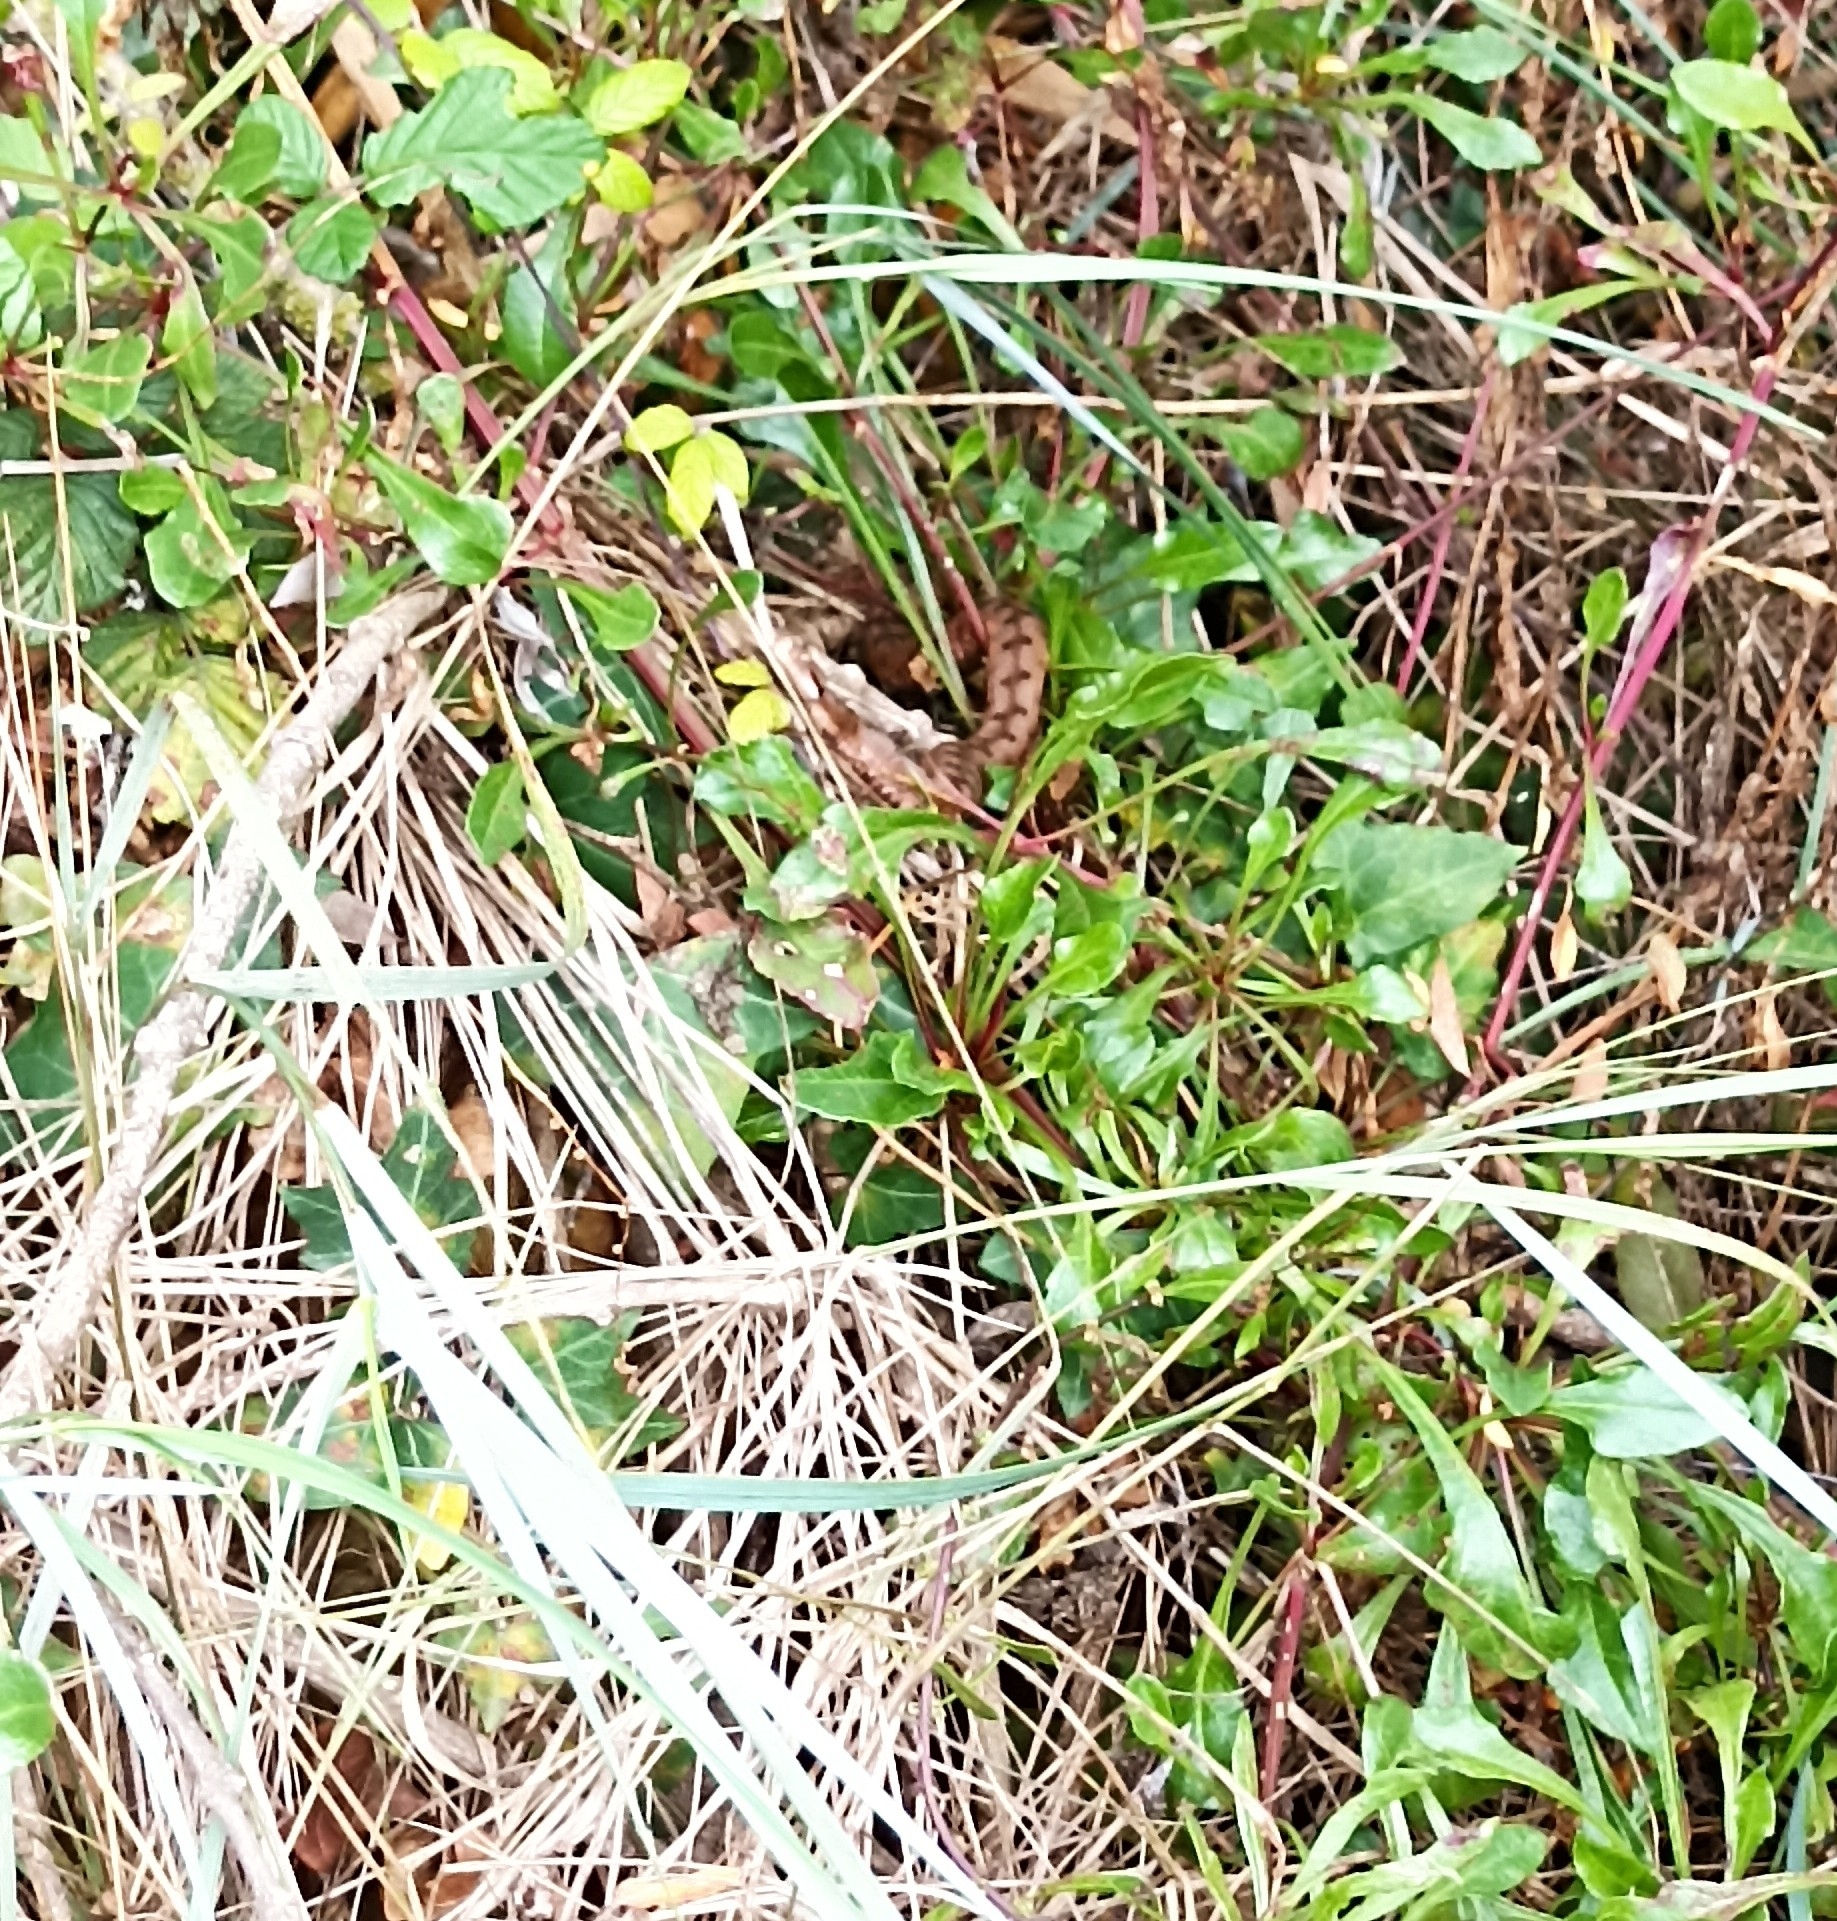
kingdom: Animalia
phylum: Chordata
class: Squamata
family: Viperidae
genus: Vipera
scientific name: Vipera aspis
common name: Asp viper
